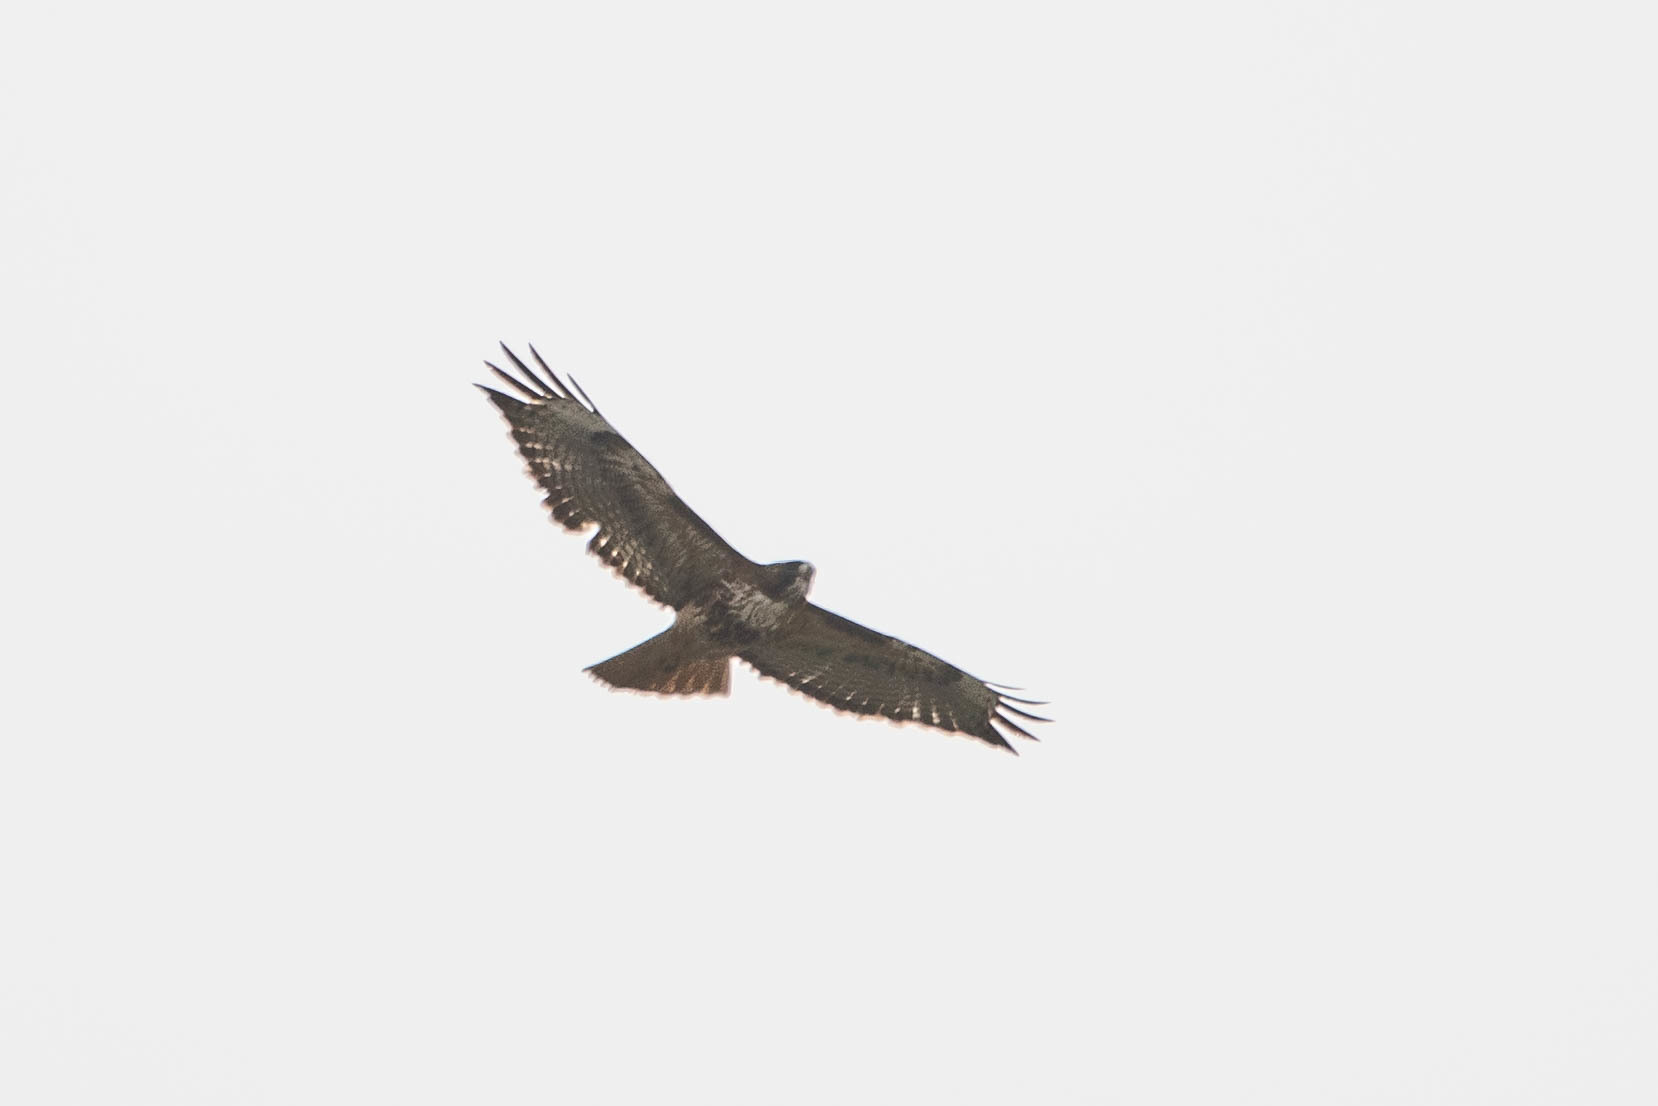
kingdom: Animalia
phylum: Chordata
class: Aves
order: Accipitriformes
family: Accipitridae
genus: Buteo
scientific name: Buteo jamaicensis
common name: Red-tailed hawk
